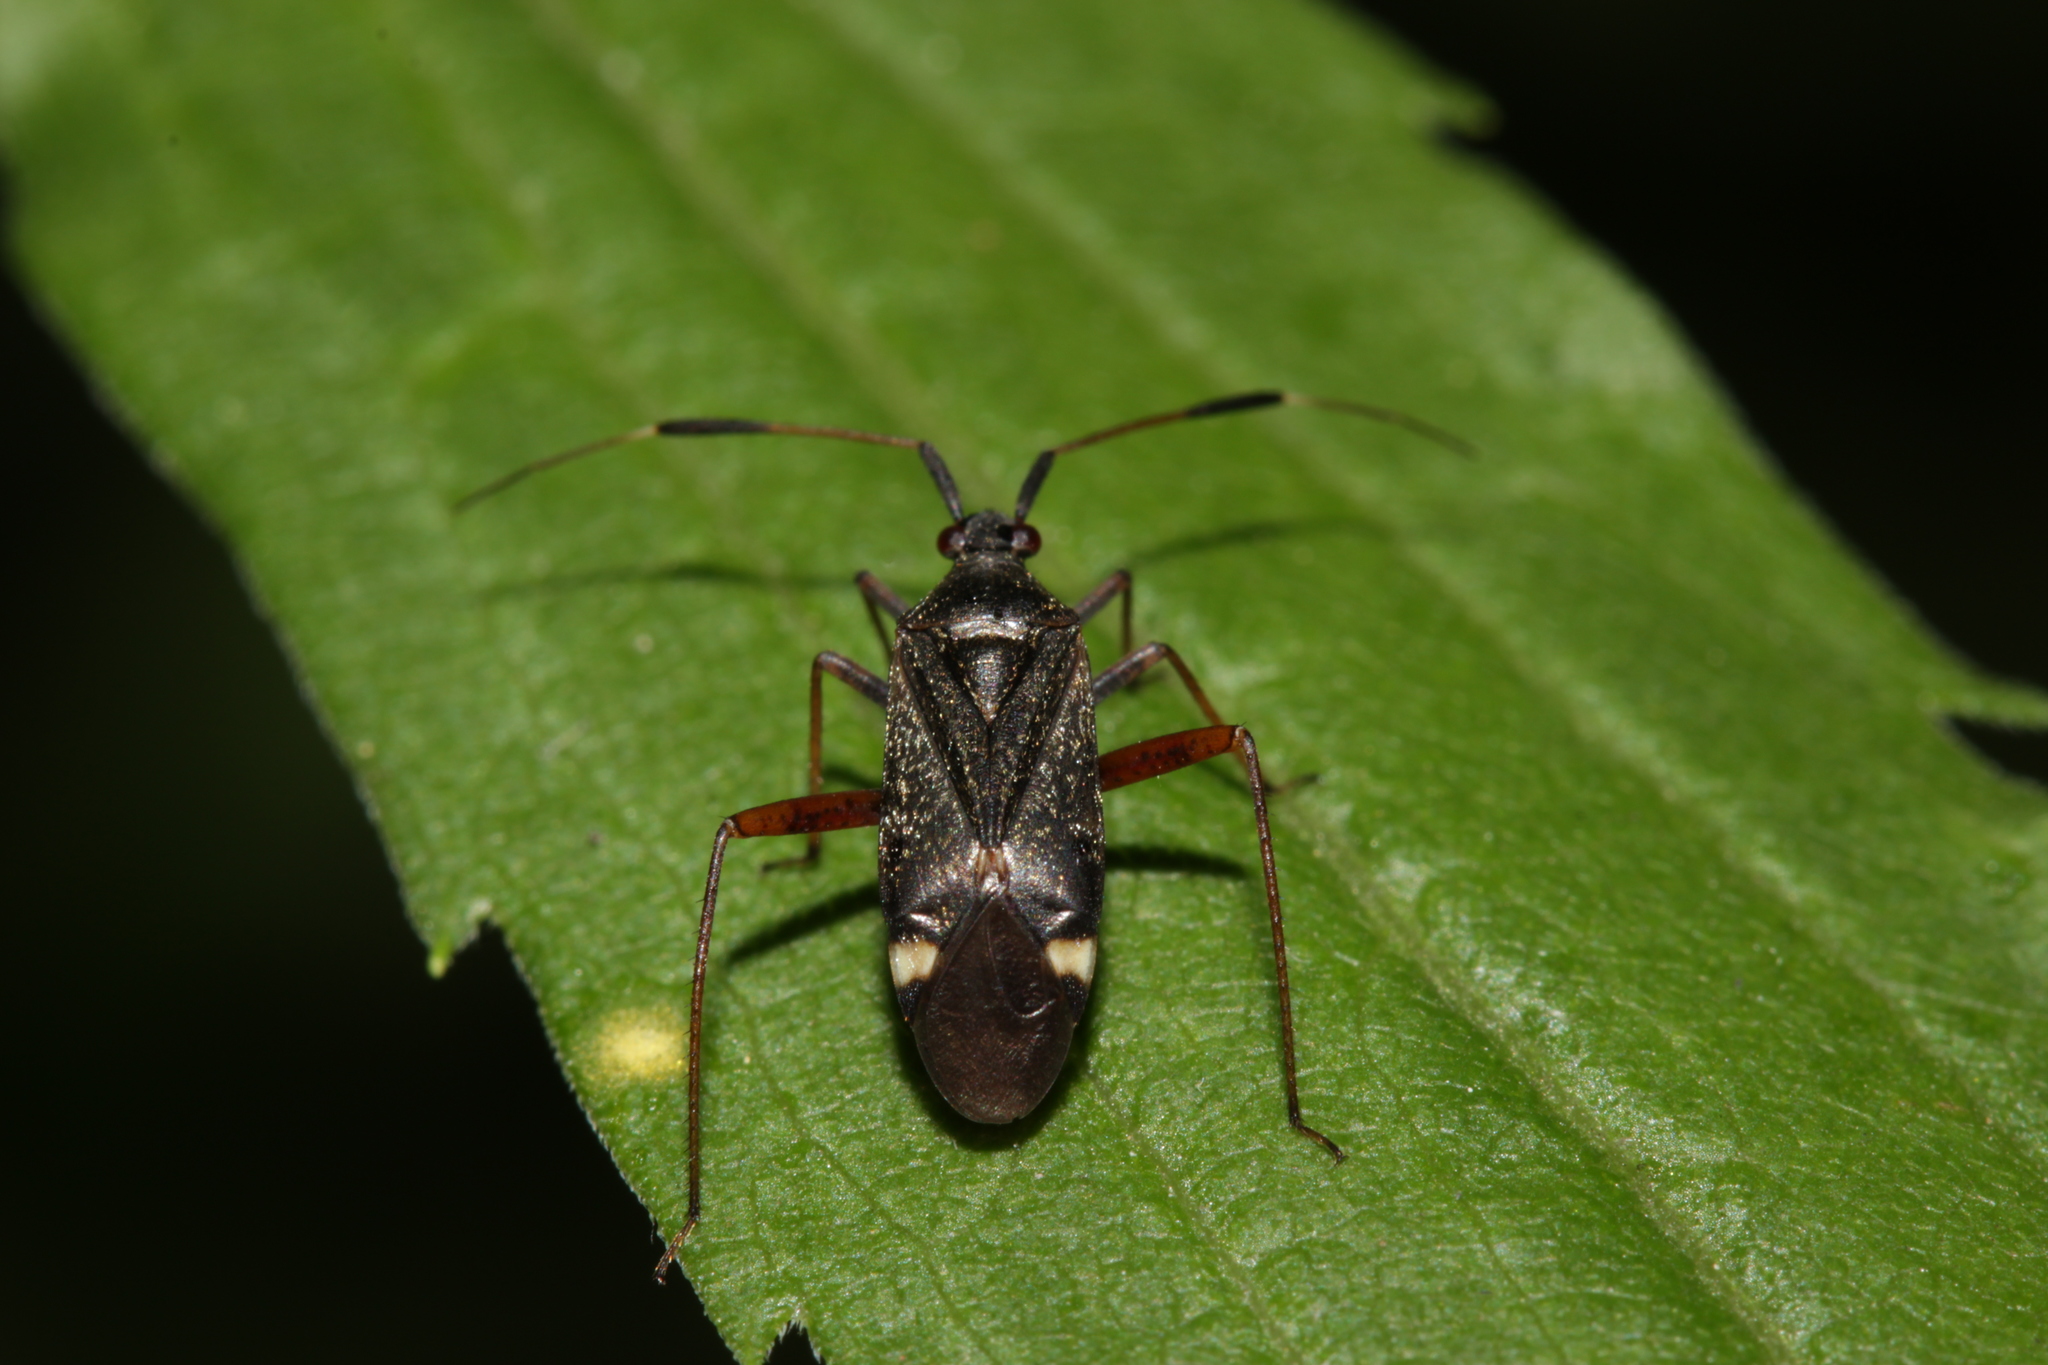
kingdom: Animalia
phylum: Arthropoda
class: Insecta
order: Hemiptera
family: Miridae
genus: Closterotomus
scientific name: Closterotomus biclavatus
